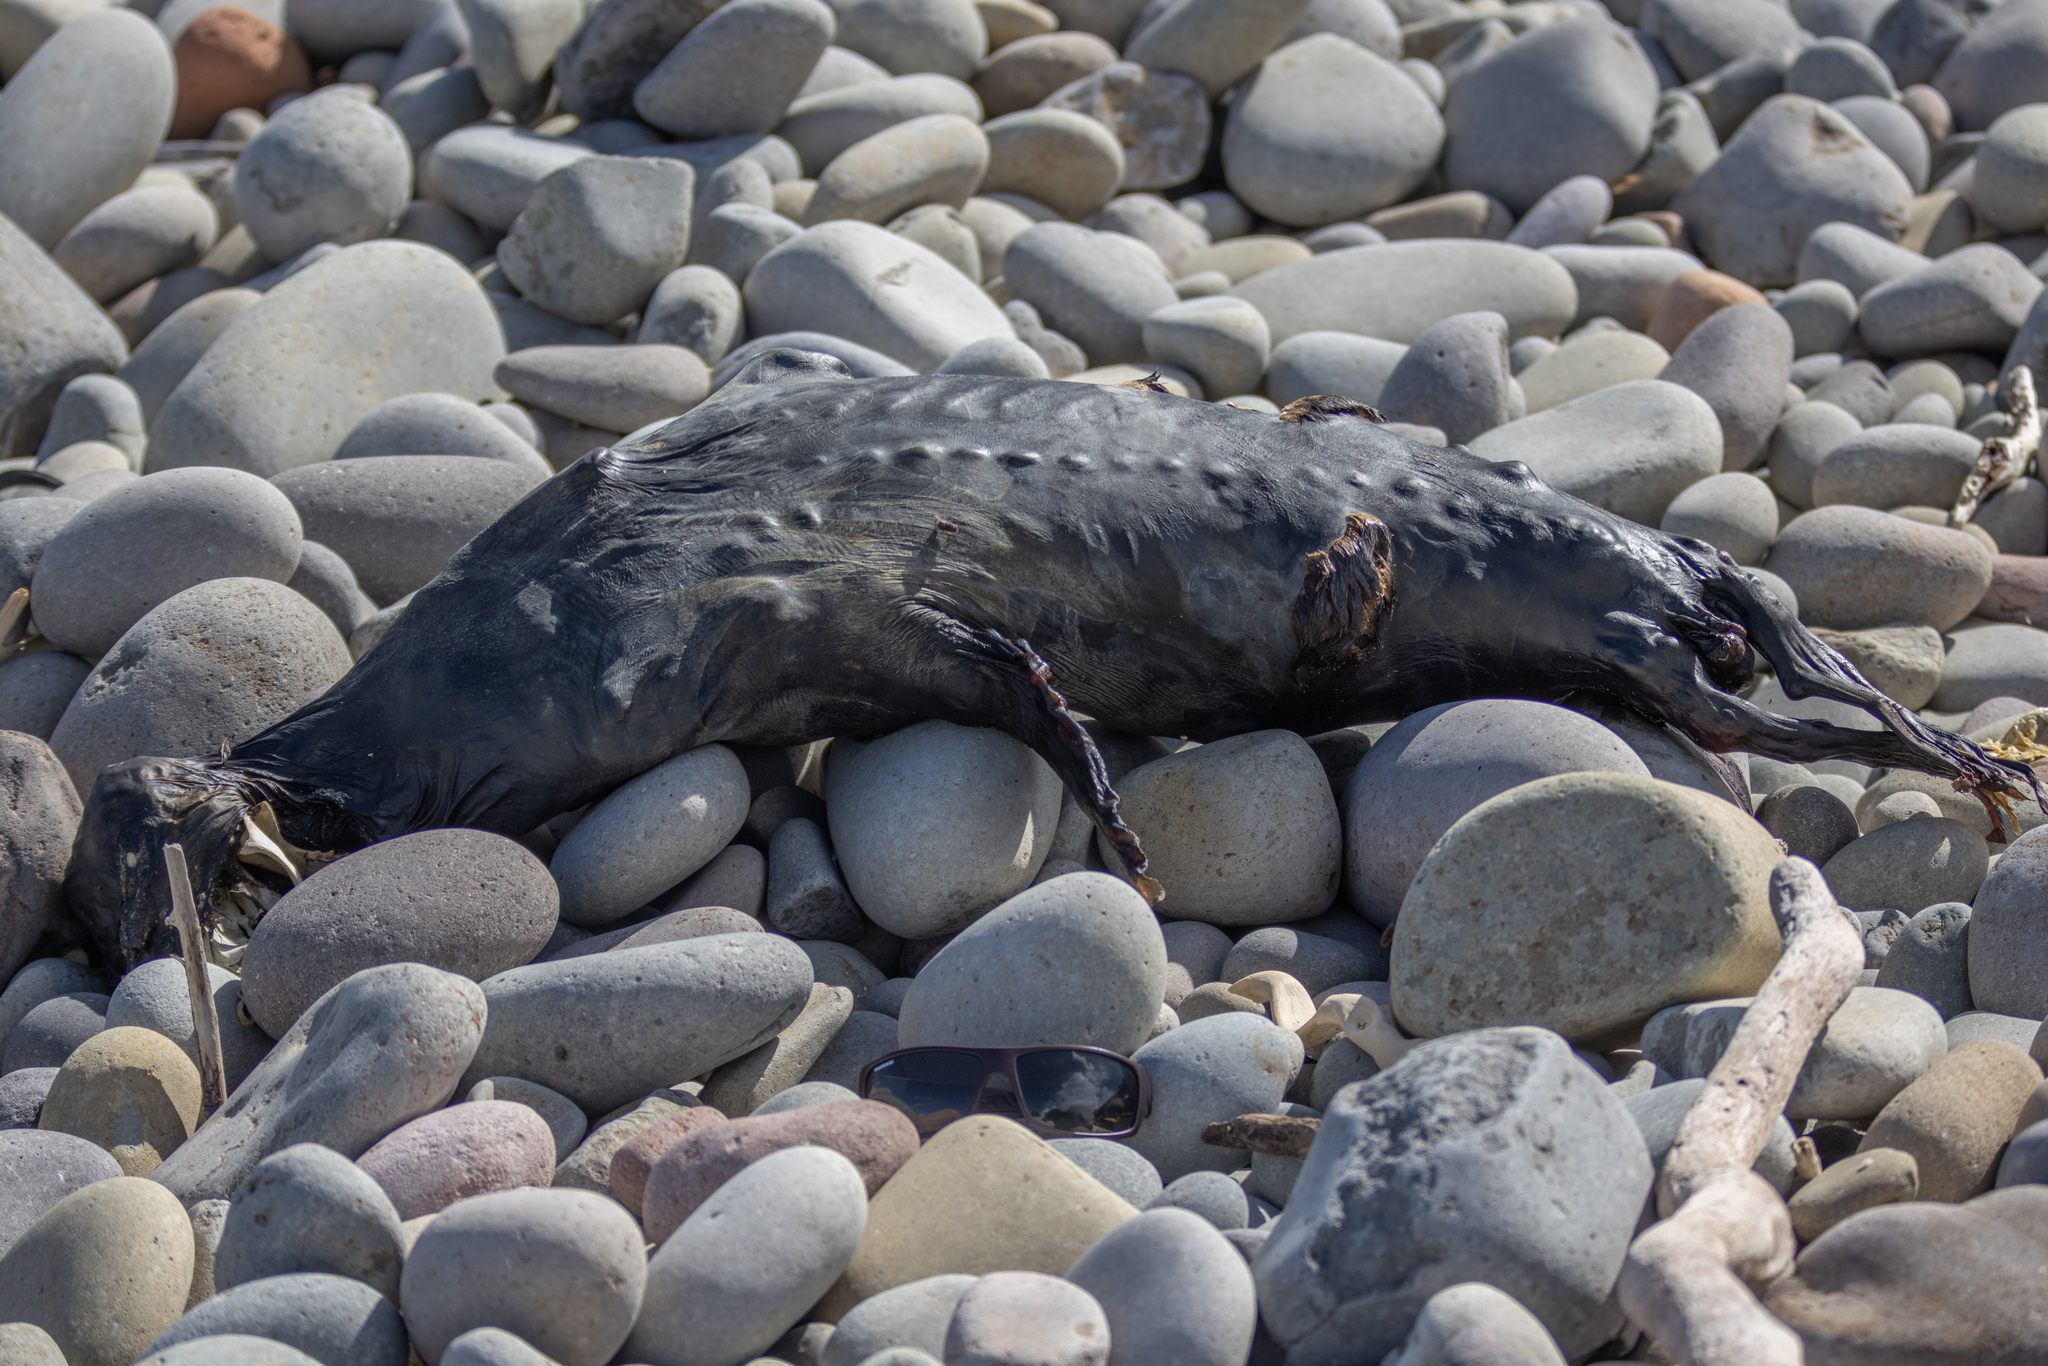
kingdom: Animalia
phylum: Chordata
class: Mammalia
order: Carnivora
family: Otariidae
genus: Arctocephalus
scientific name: Arctocephalus forsteri
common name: New zealand fur seal
